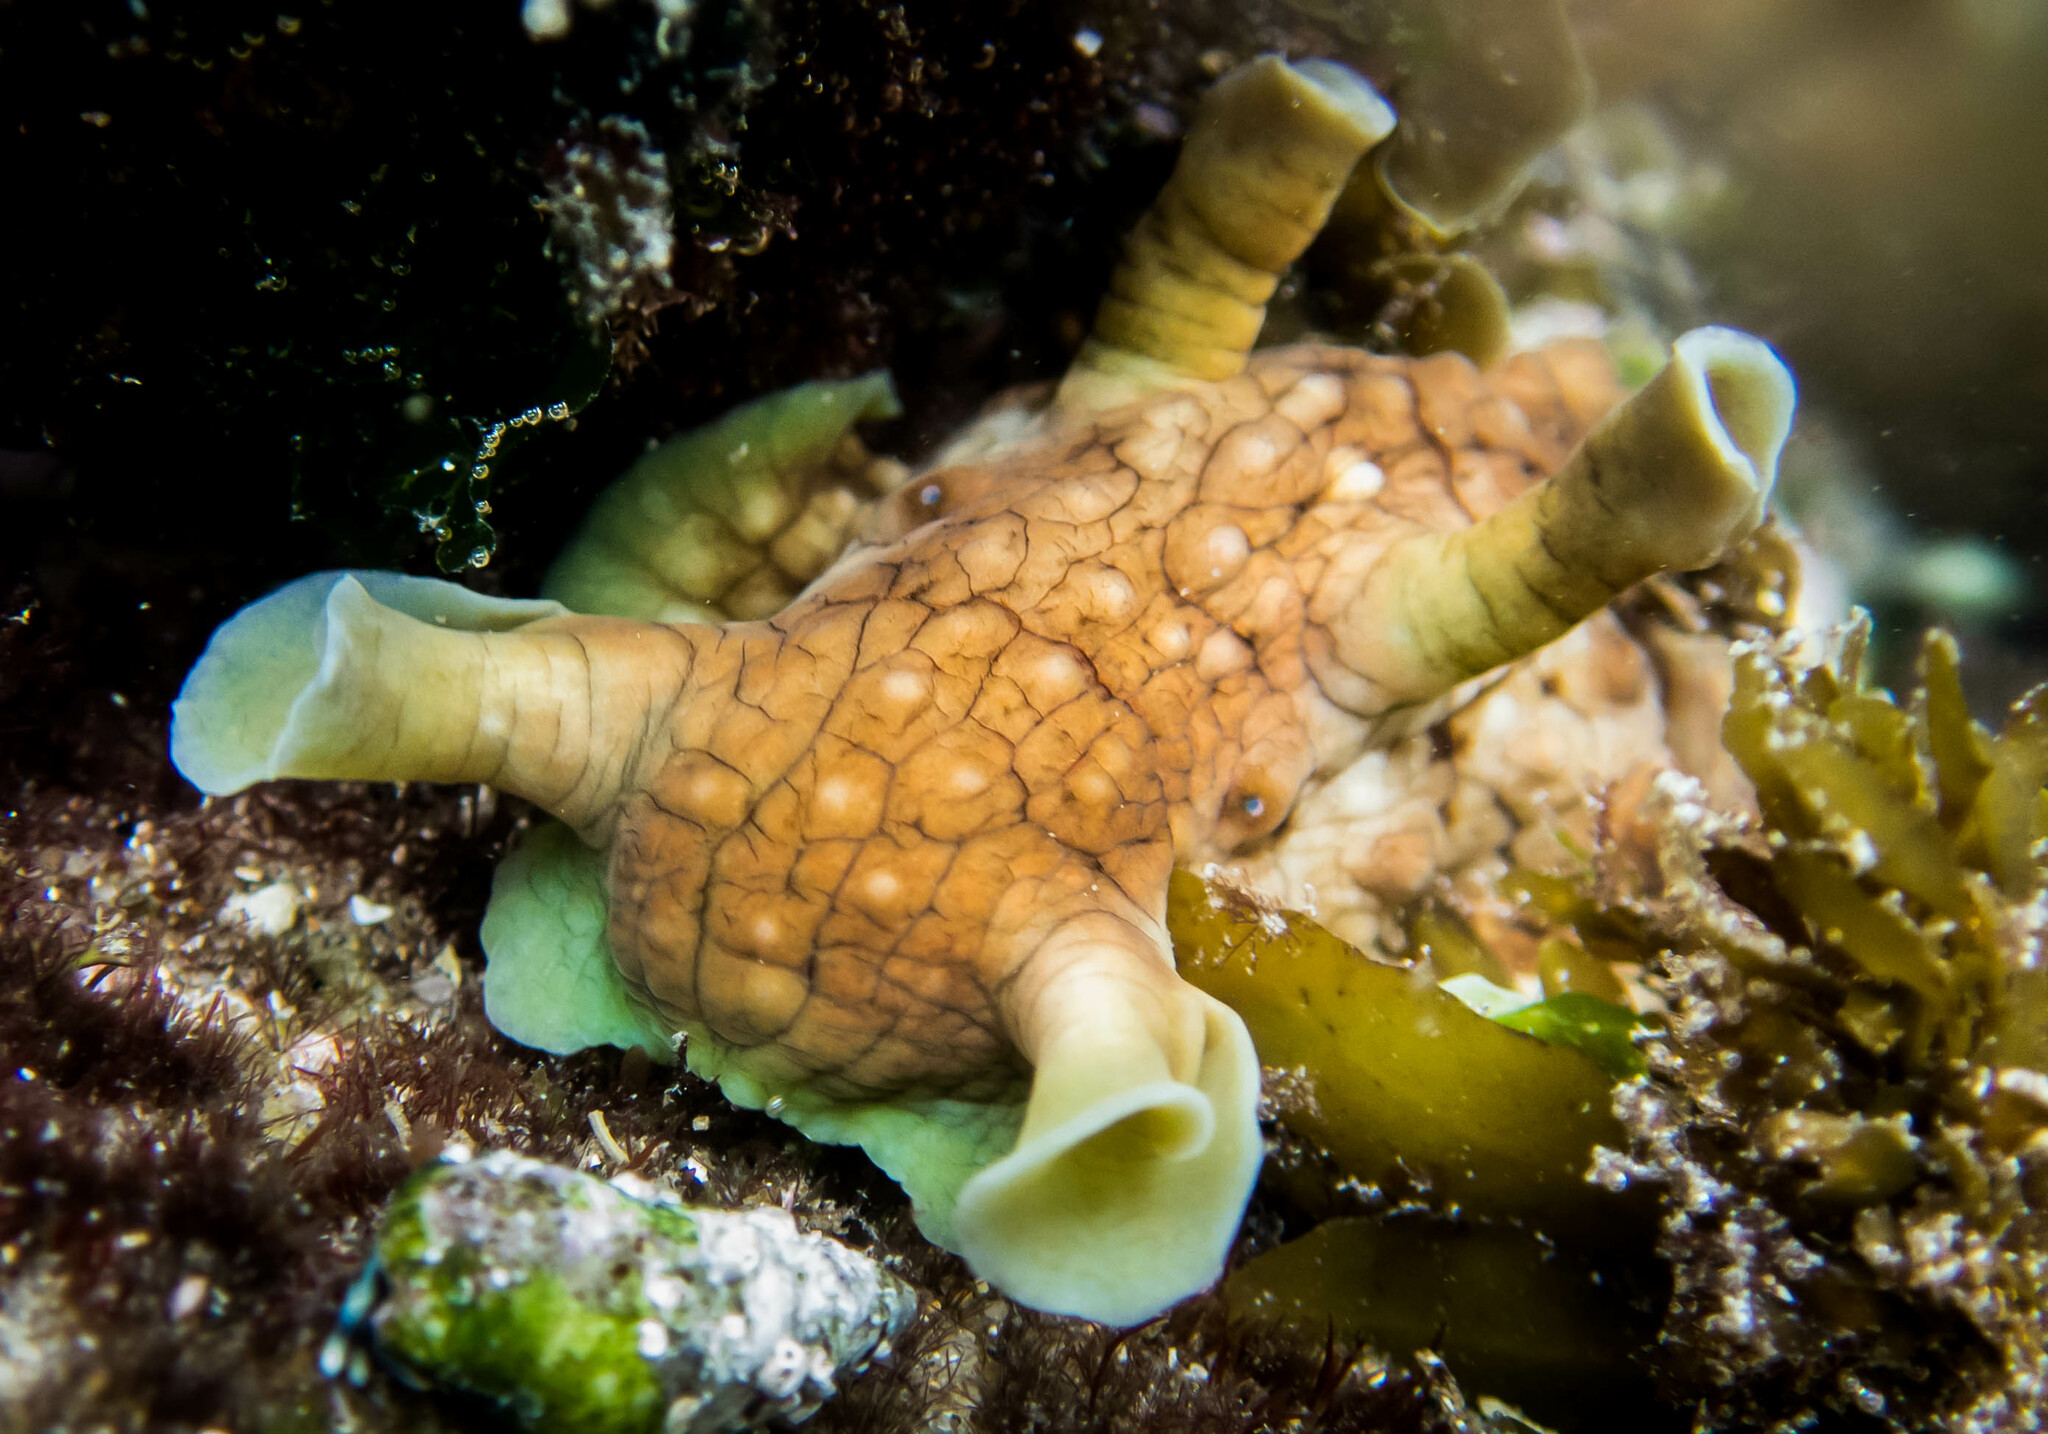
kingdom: Animalia
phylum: Mollusca
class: Gastropoda
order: Aplysiida
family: Aplysiidae
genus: Dolabrifera
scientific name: Dolabrifera brazieri
